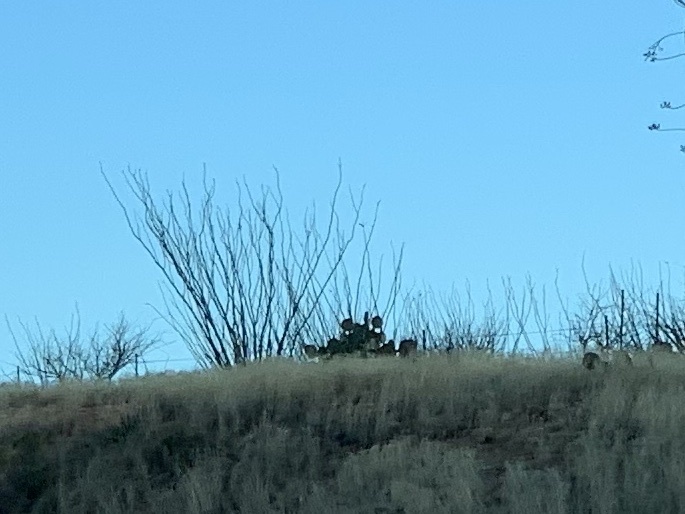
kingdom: Plantae
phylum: Tracheophyta
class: Magnoliopsida
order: Ericales
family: Fouquieriaceae
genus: Fouquieria
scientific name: Fouquieria splendens
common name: Vine-cactus
